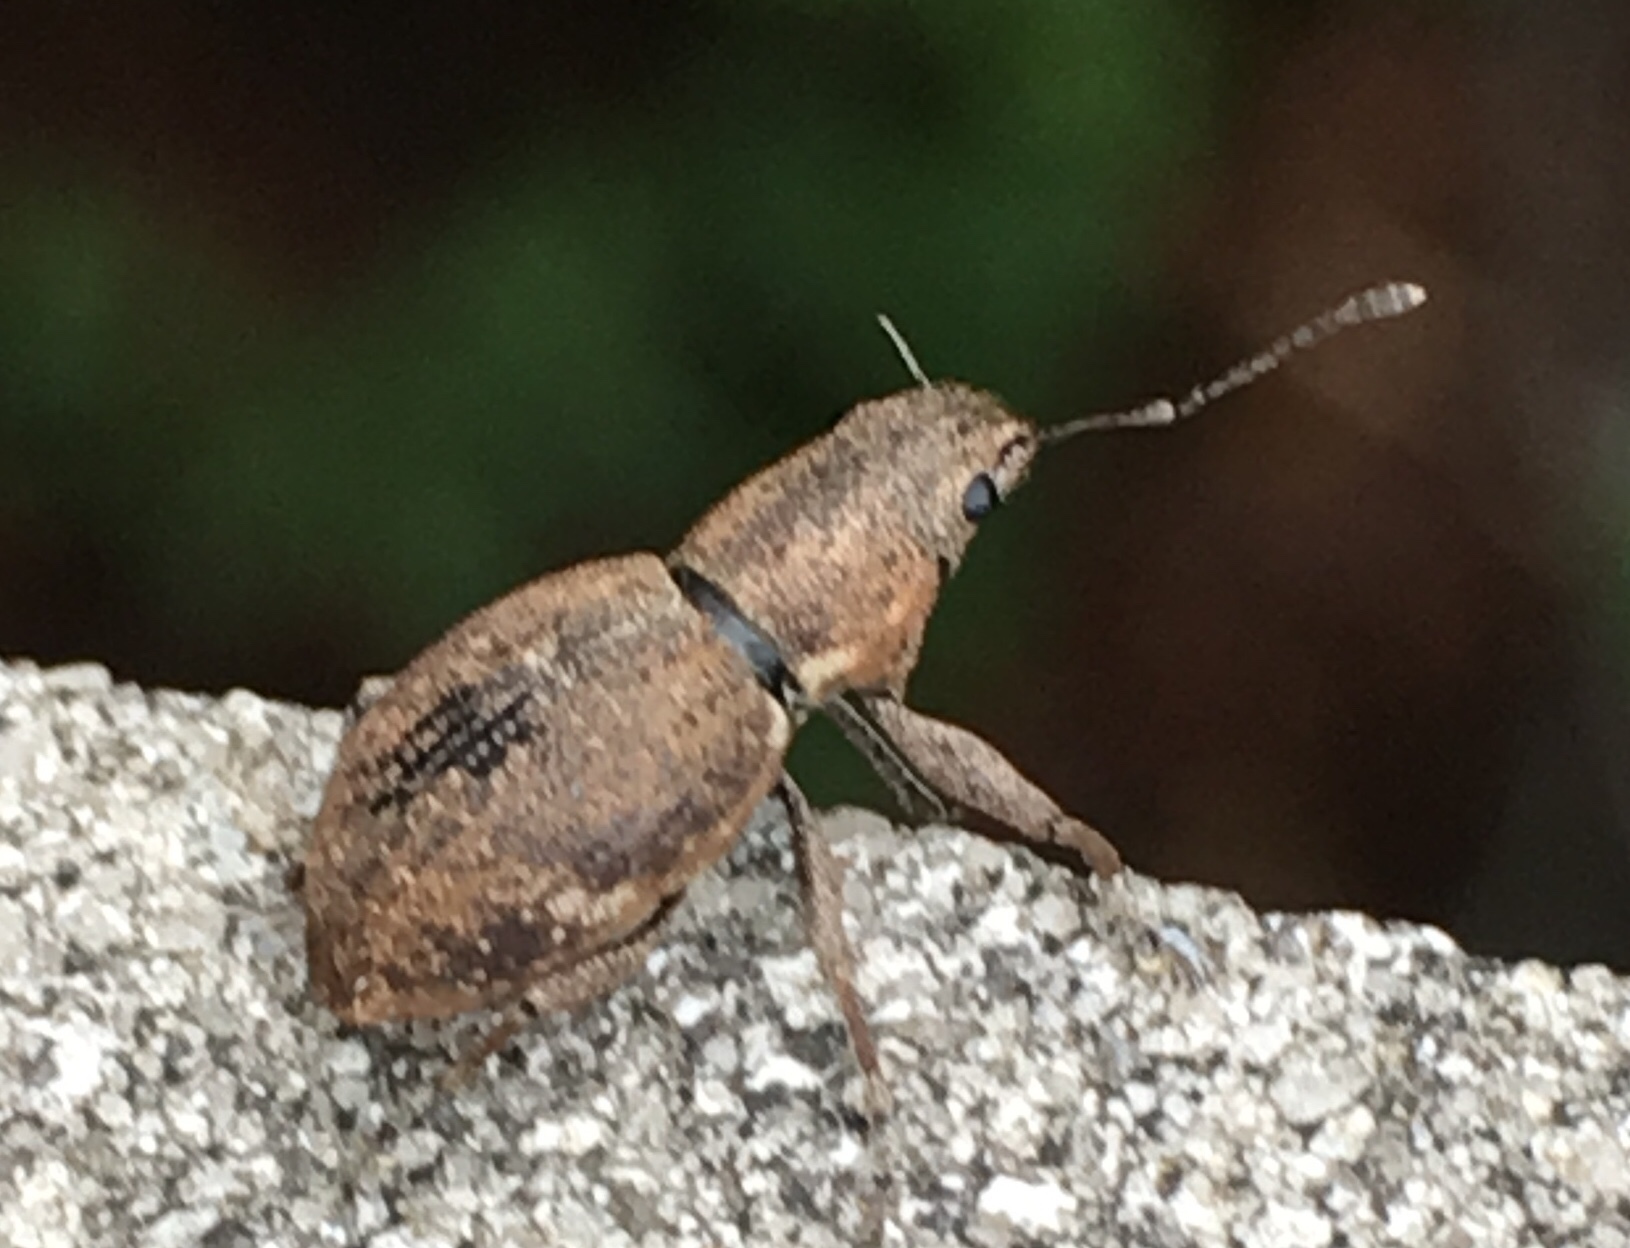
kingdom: Animalia
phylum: Arthropoda
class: Insecta
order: Coleoptera
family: Curculionidae
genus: Naupactus
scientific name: Naupactus cervinus
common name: Fuller rose beetle
